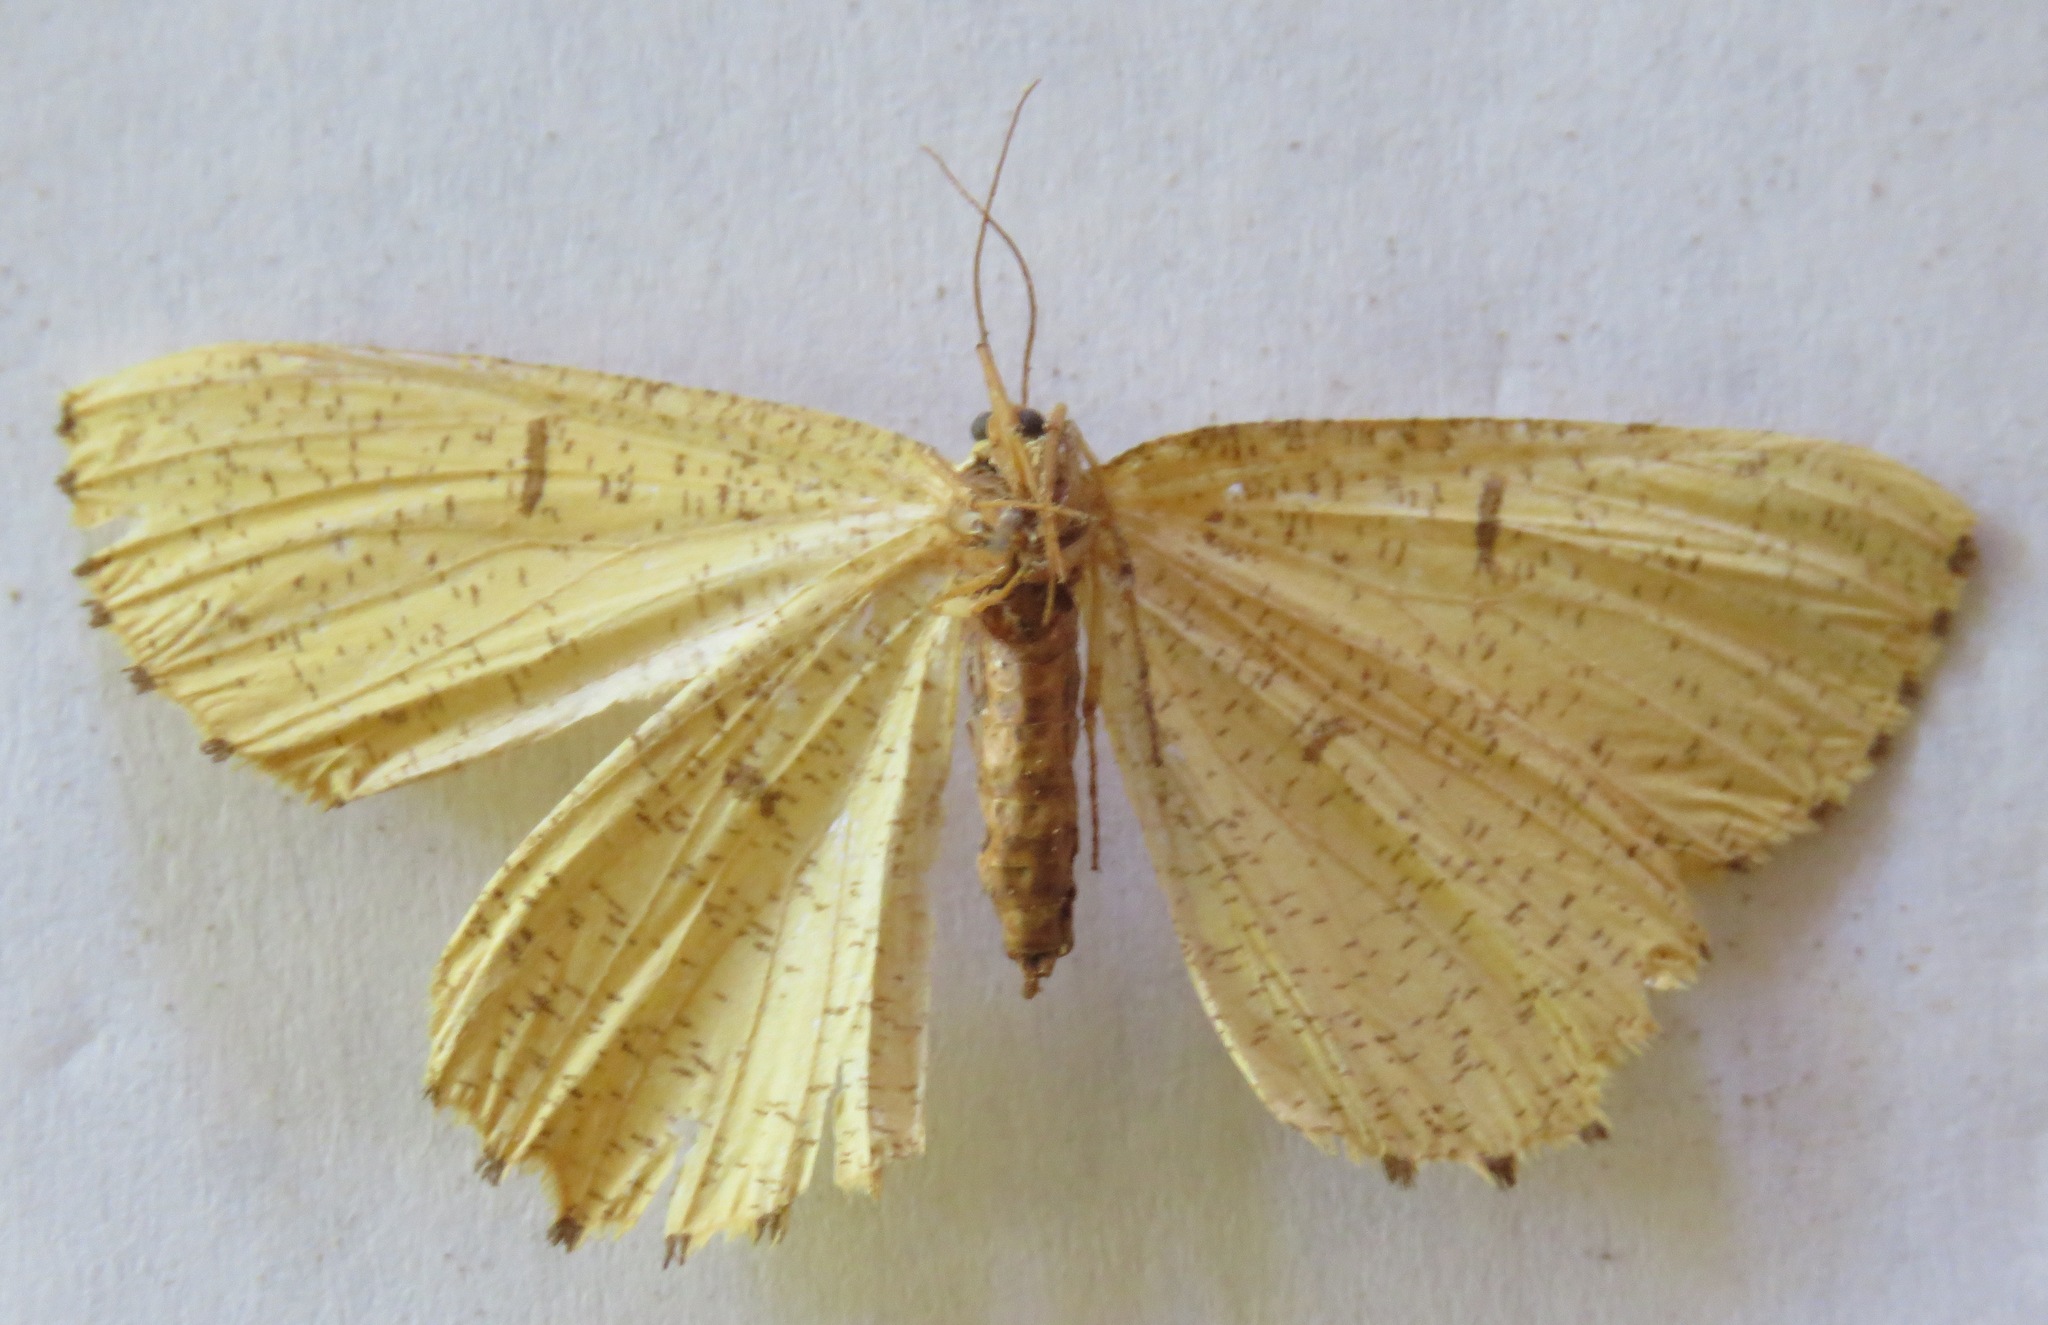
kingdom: Animalia
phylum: Arthropoda
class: Insecta
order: Lepidoptera
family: Geometridae
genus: Angerona
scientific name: Angerona prunaria
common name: Orange moth
